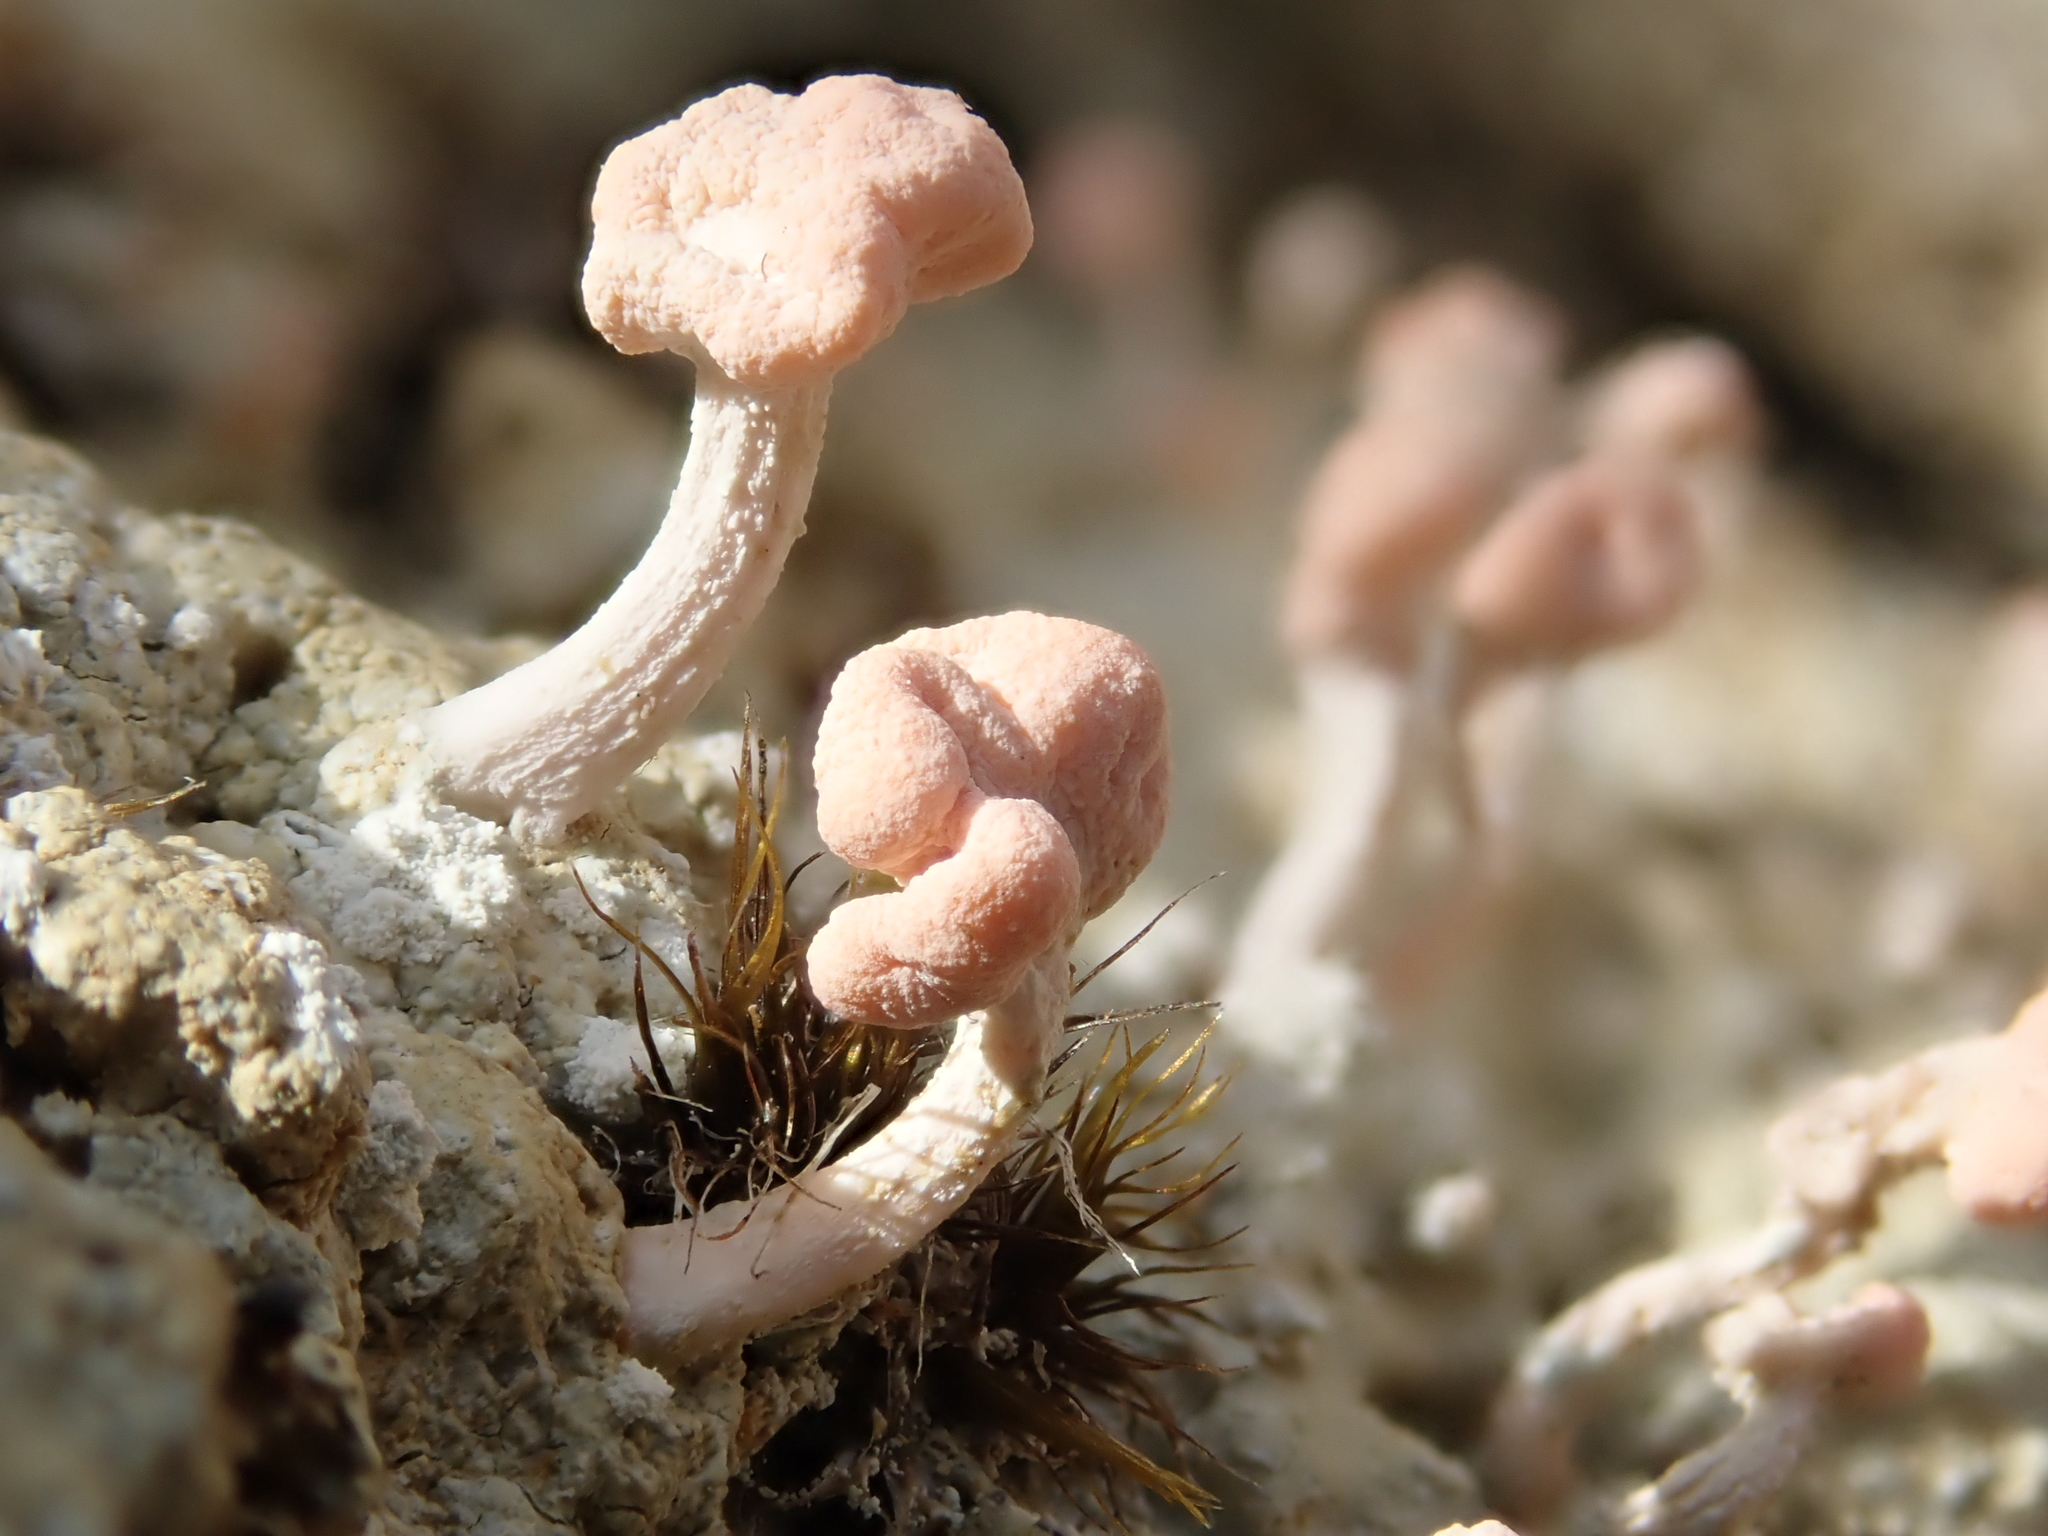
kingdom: Fungi
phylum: Ascomycota
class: Lecanoromycetes
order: Pertusariales
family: Icmadophilaceae
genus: Dibaeis
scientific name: Dibaeis arcuata
